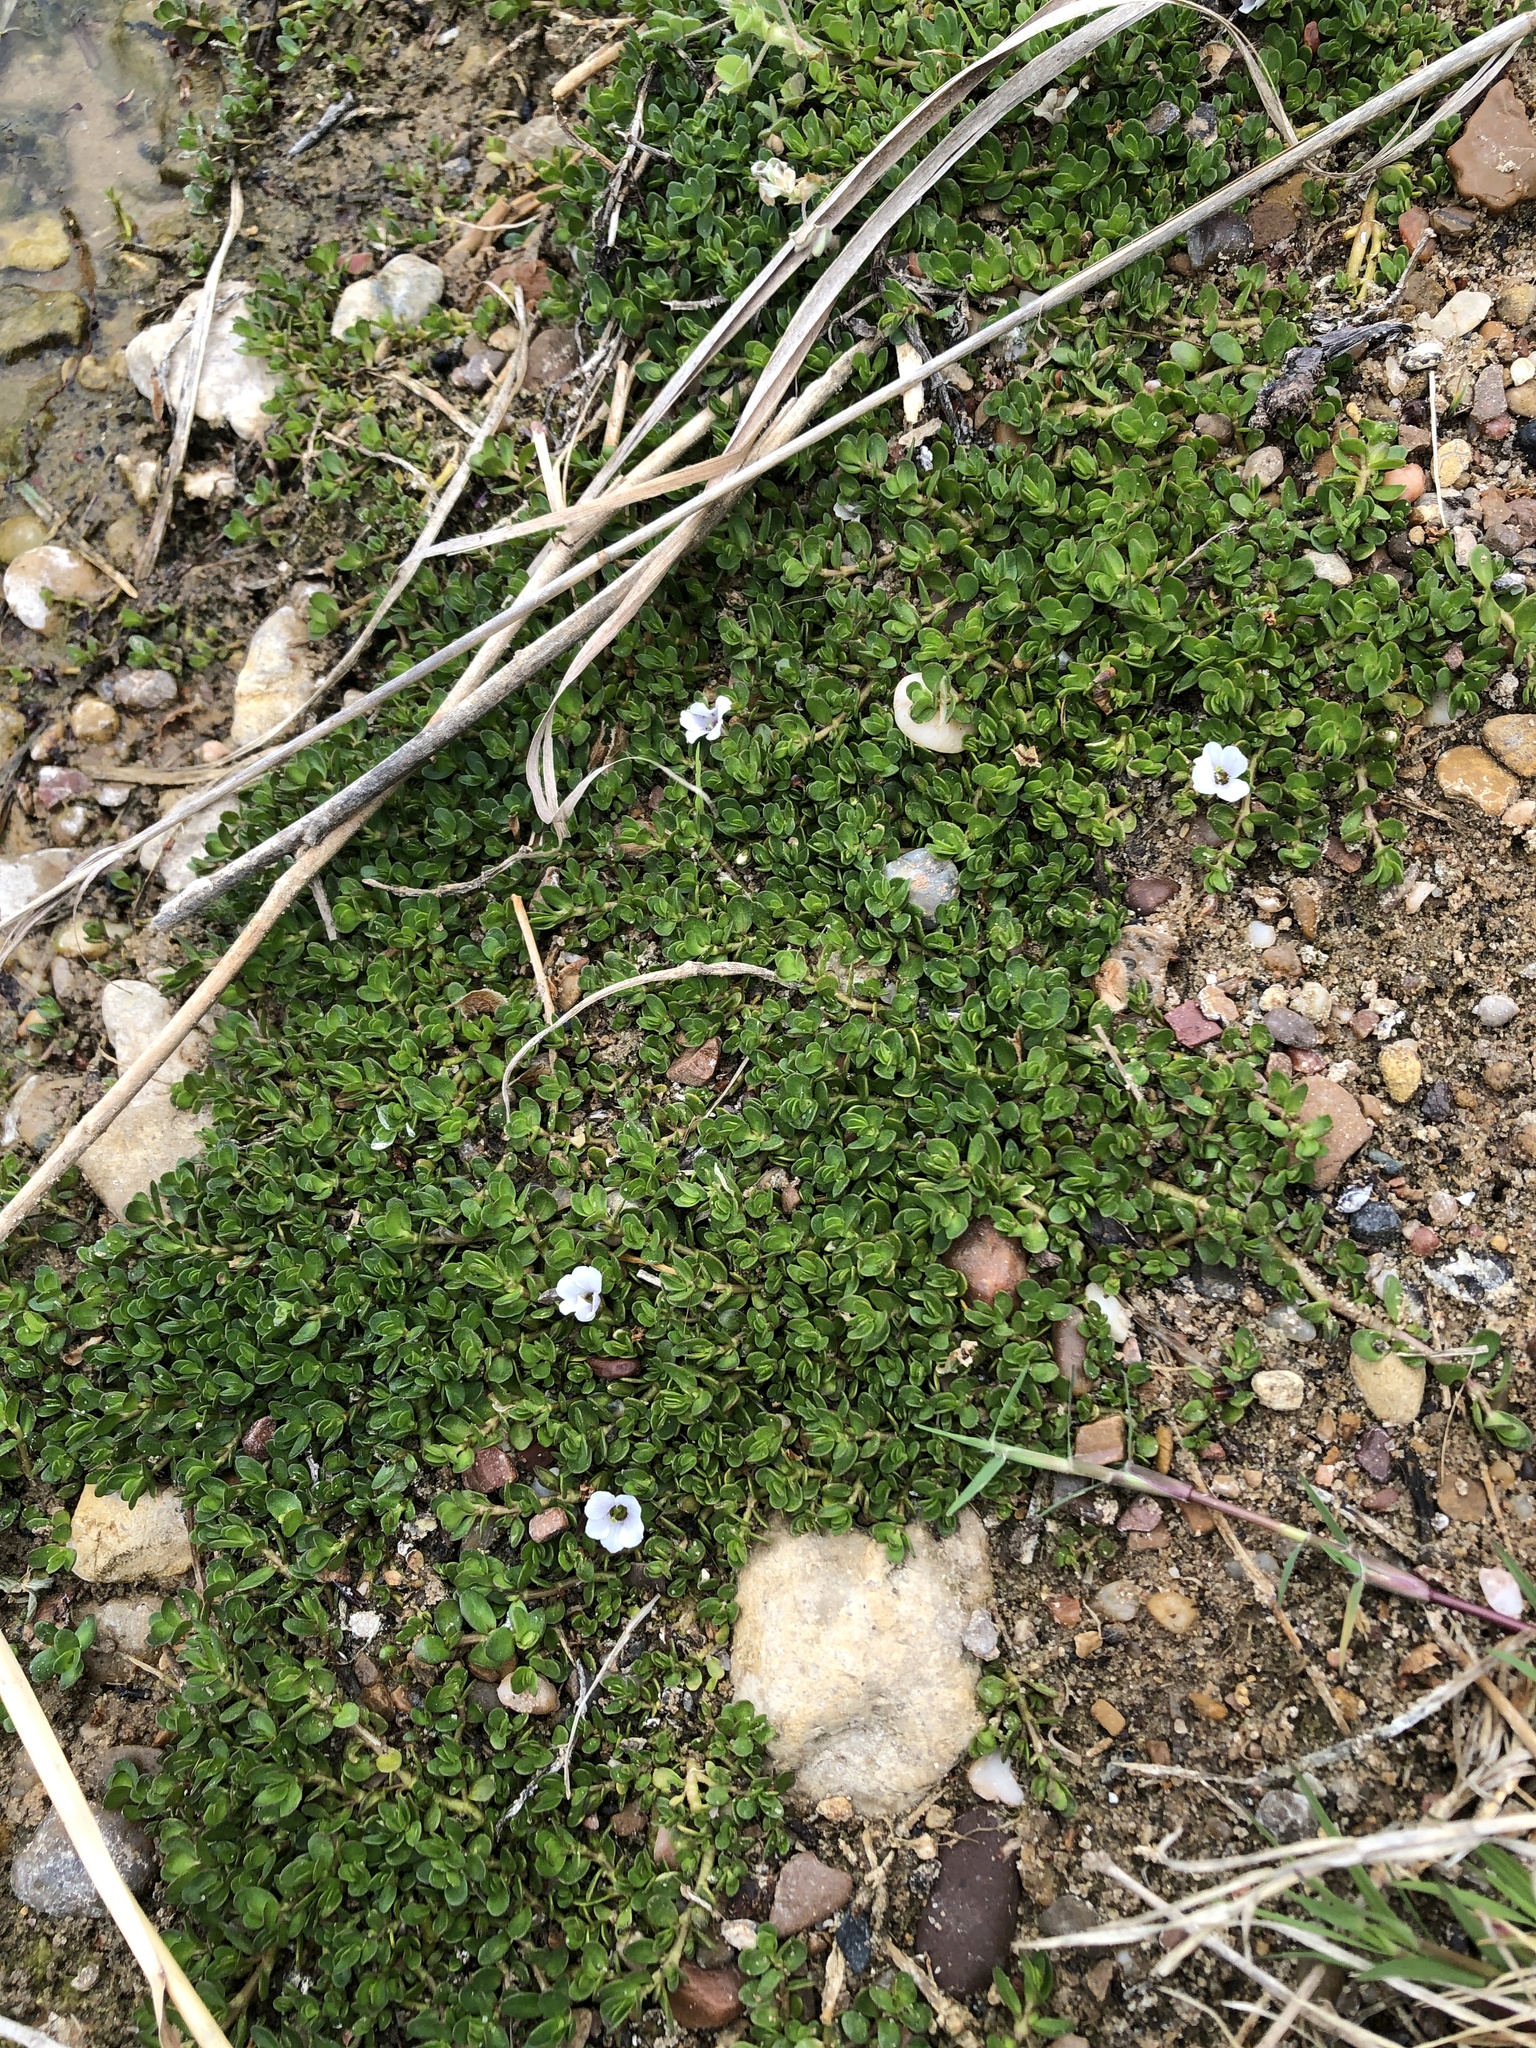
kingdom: Plantae
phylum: Tracheophyta
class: Magnoliopsida
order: Lamiales
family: Plantaginaceae
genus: Bacopa
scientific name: Bacopa monnieri
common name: Indian-pennywort
